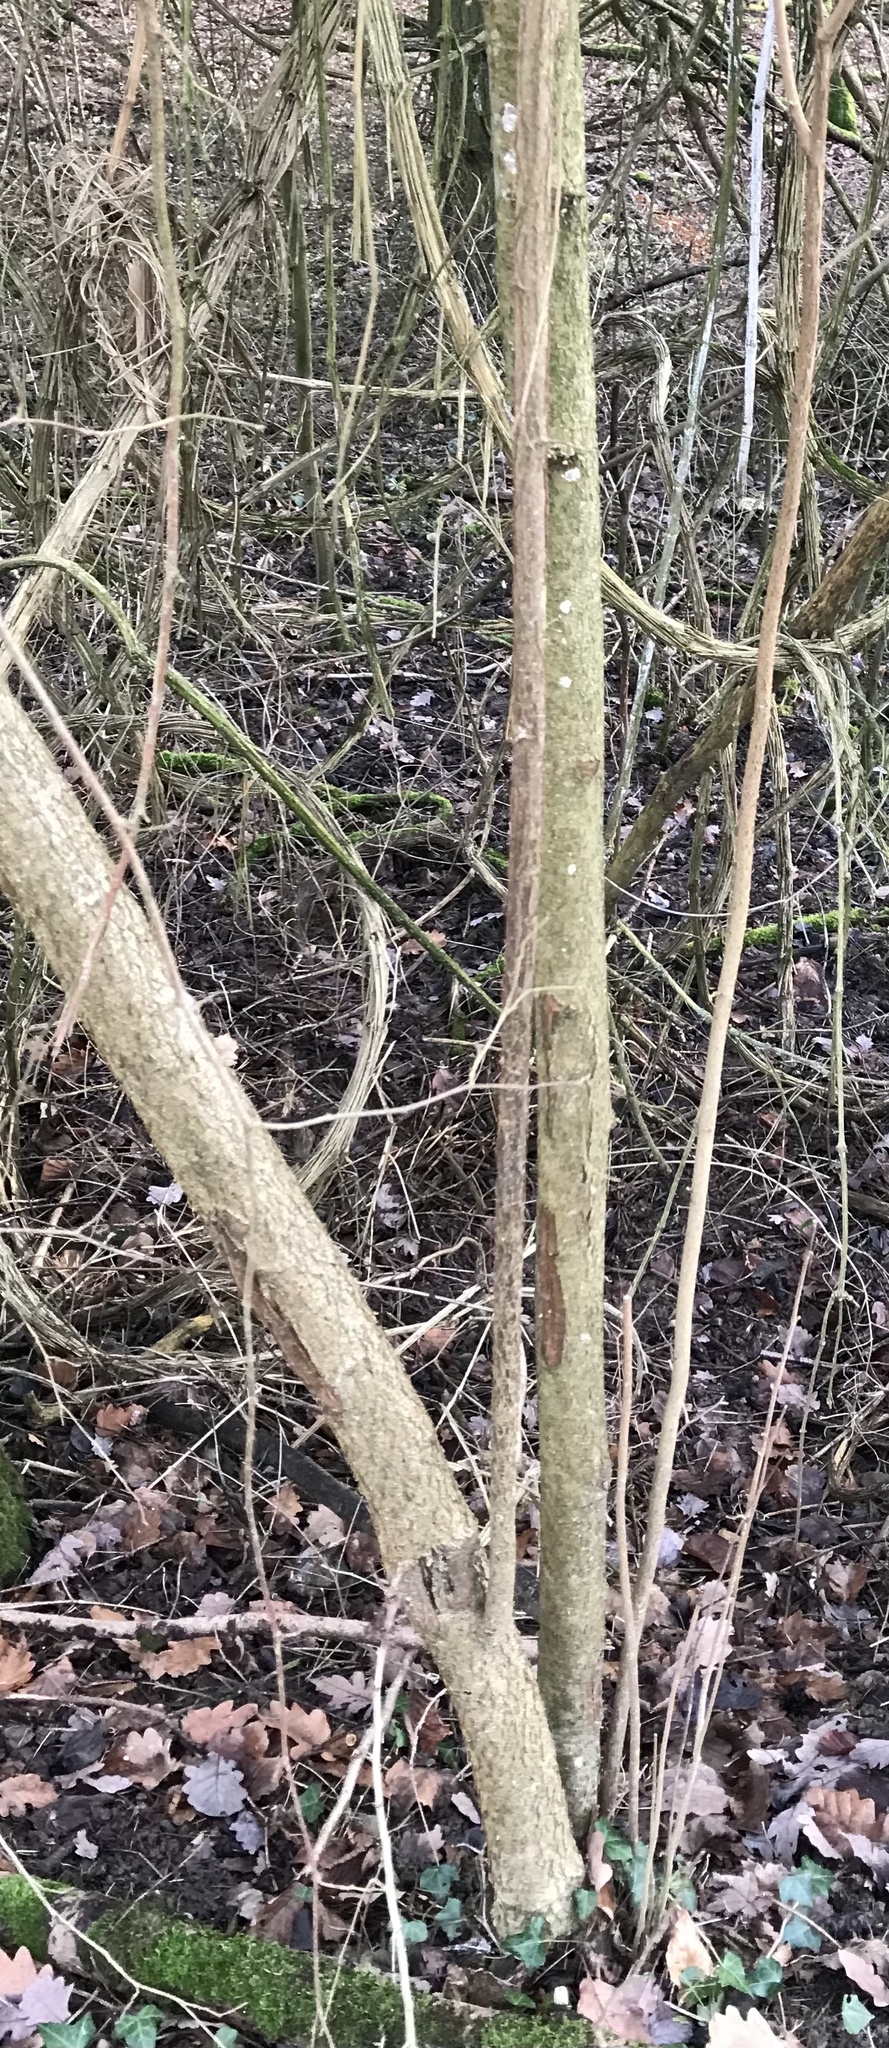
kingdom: Plantae
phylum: Tracheophyta
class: Magnoliopsida
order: Fagales
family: Betulaceae
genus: Corylus
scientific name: Corylus avellana
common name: European hazel
